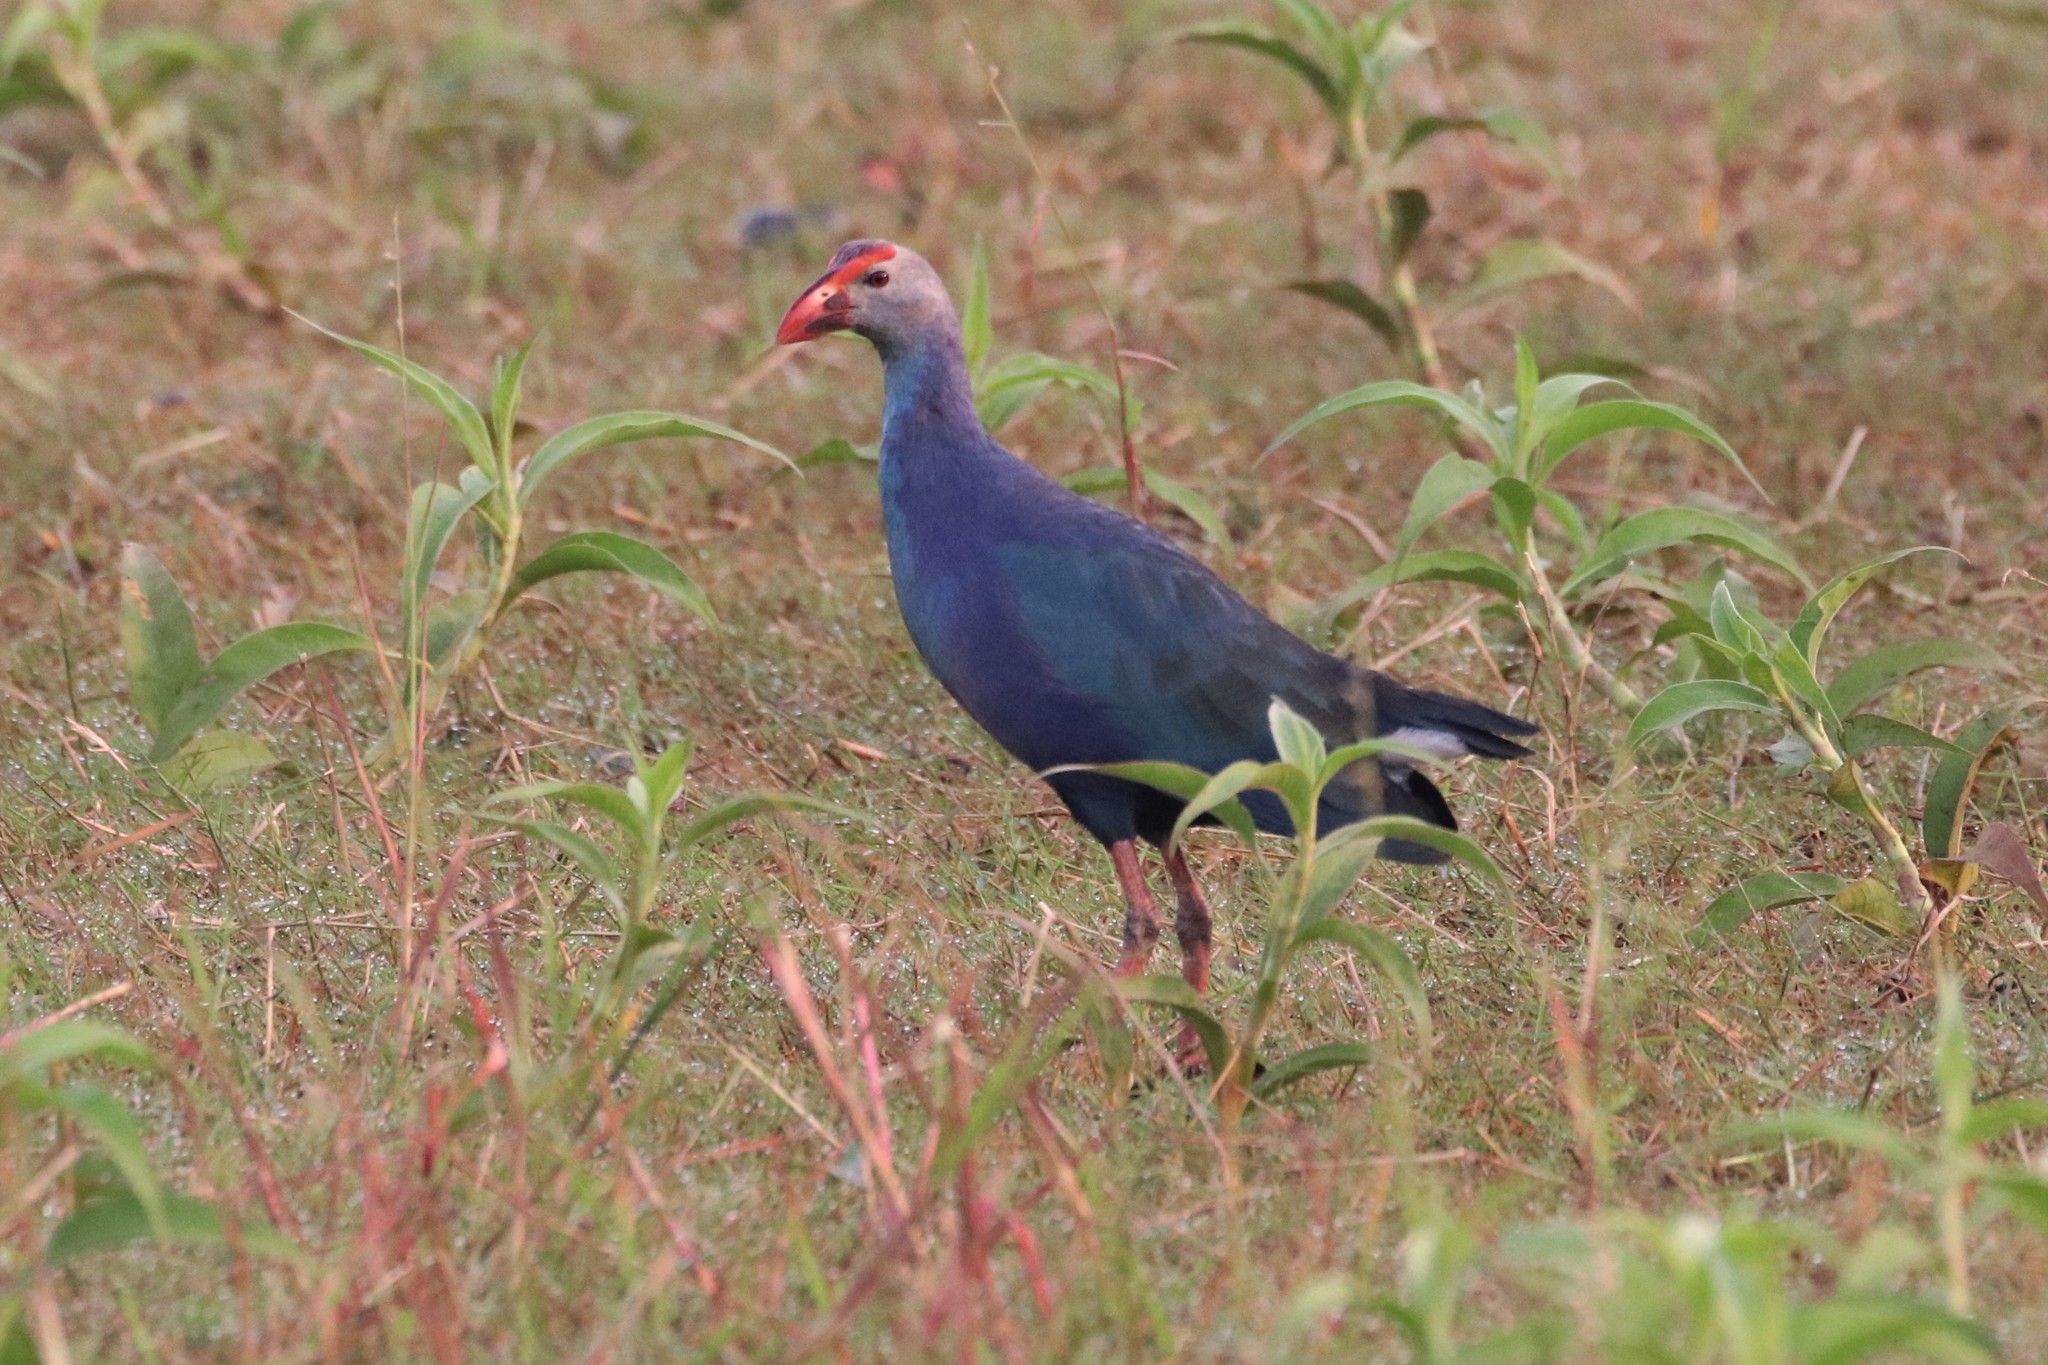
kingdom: Animalia
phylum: Chordata
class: Aves
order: Gruiformes
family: Rallidae
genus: Porphyrio
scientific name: Porphyrio porphyrio
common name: Purple swamphen
